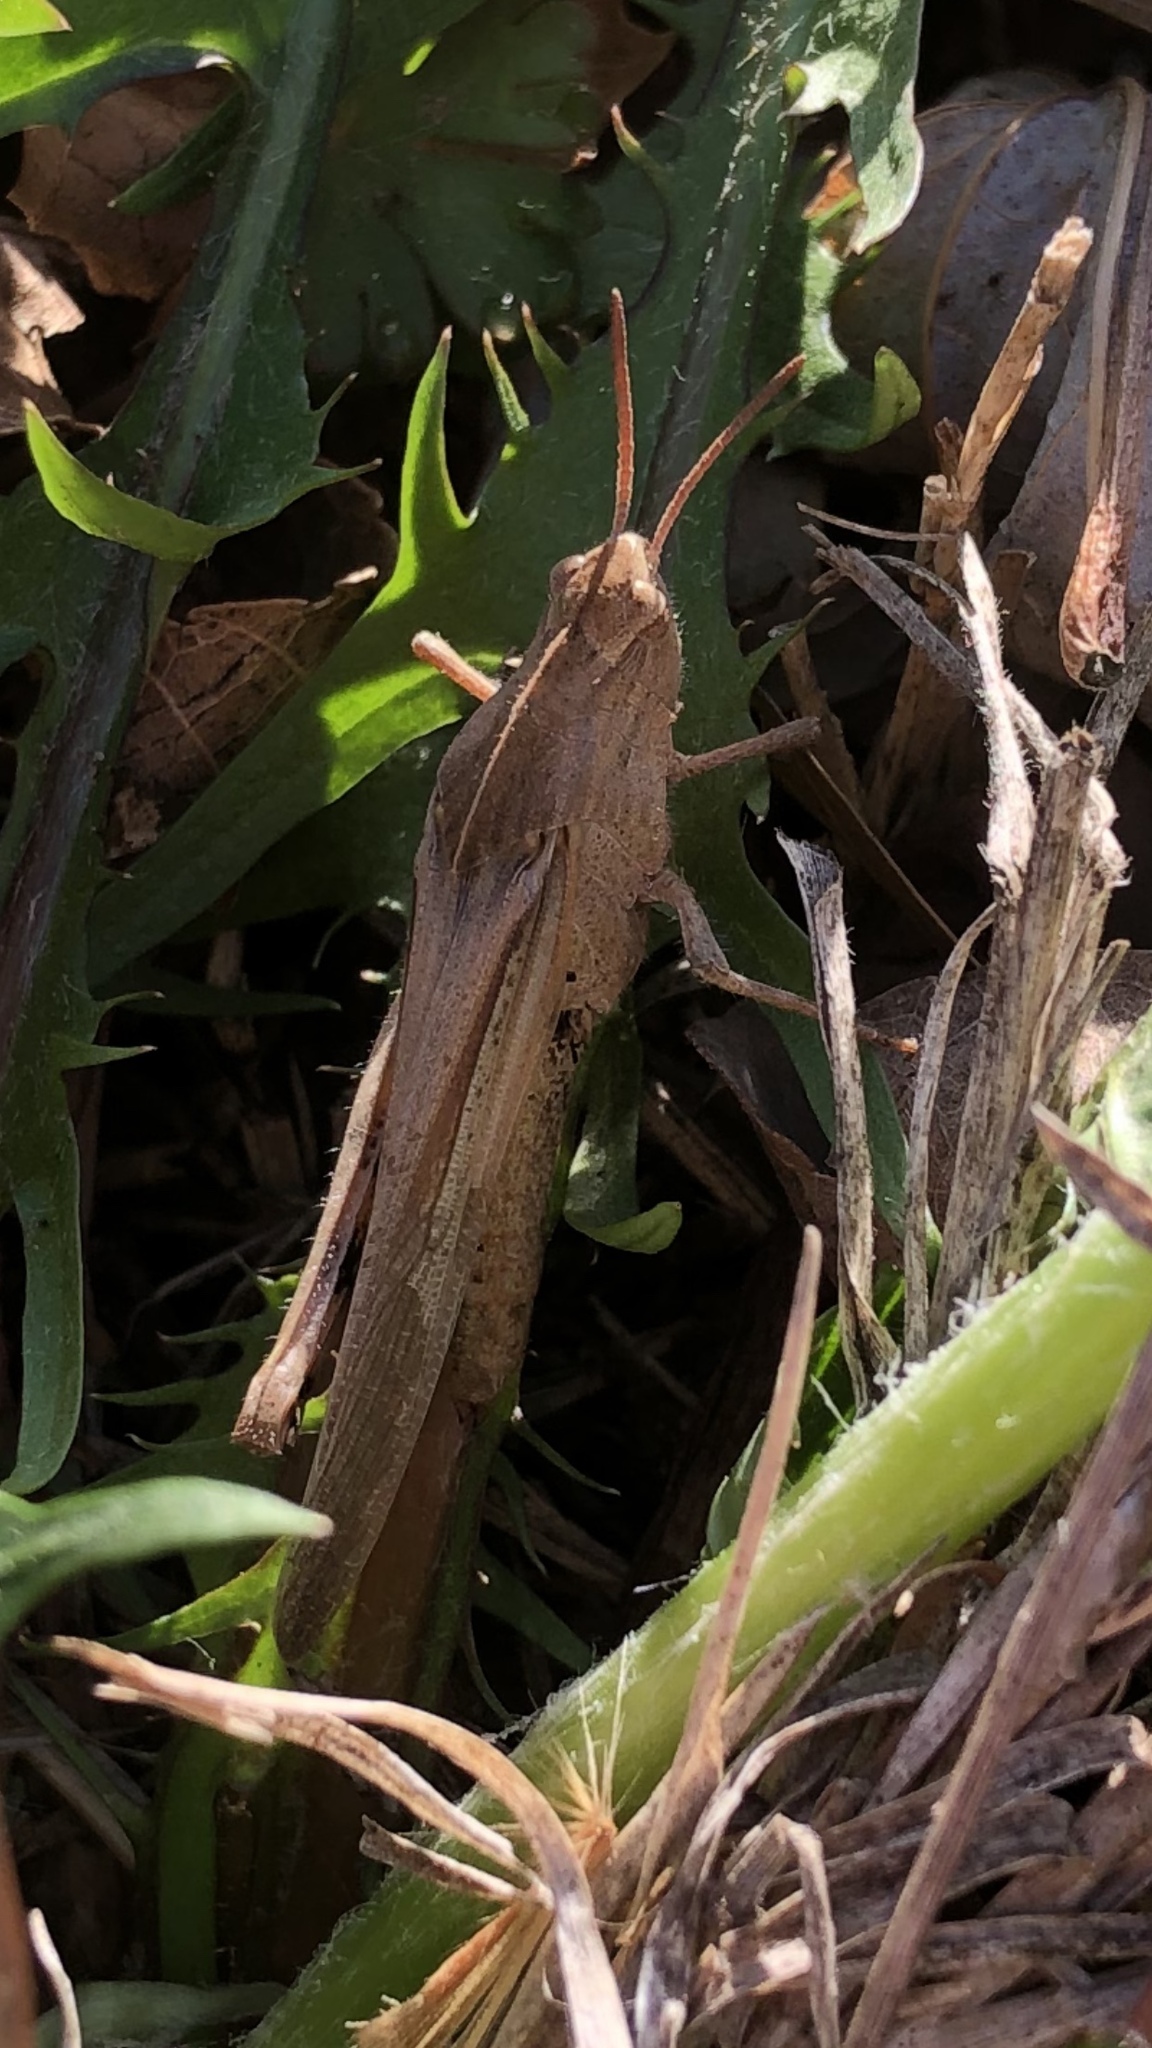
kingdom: Animalia
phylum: Arthropoda
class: Insecta
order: Orthoptera
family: Acrididae
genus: Chortophaga
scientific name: Chortophaga viridifasciata
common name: Green-striped grasshopper
